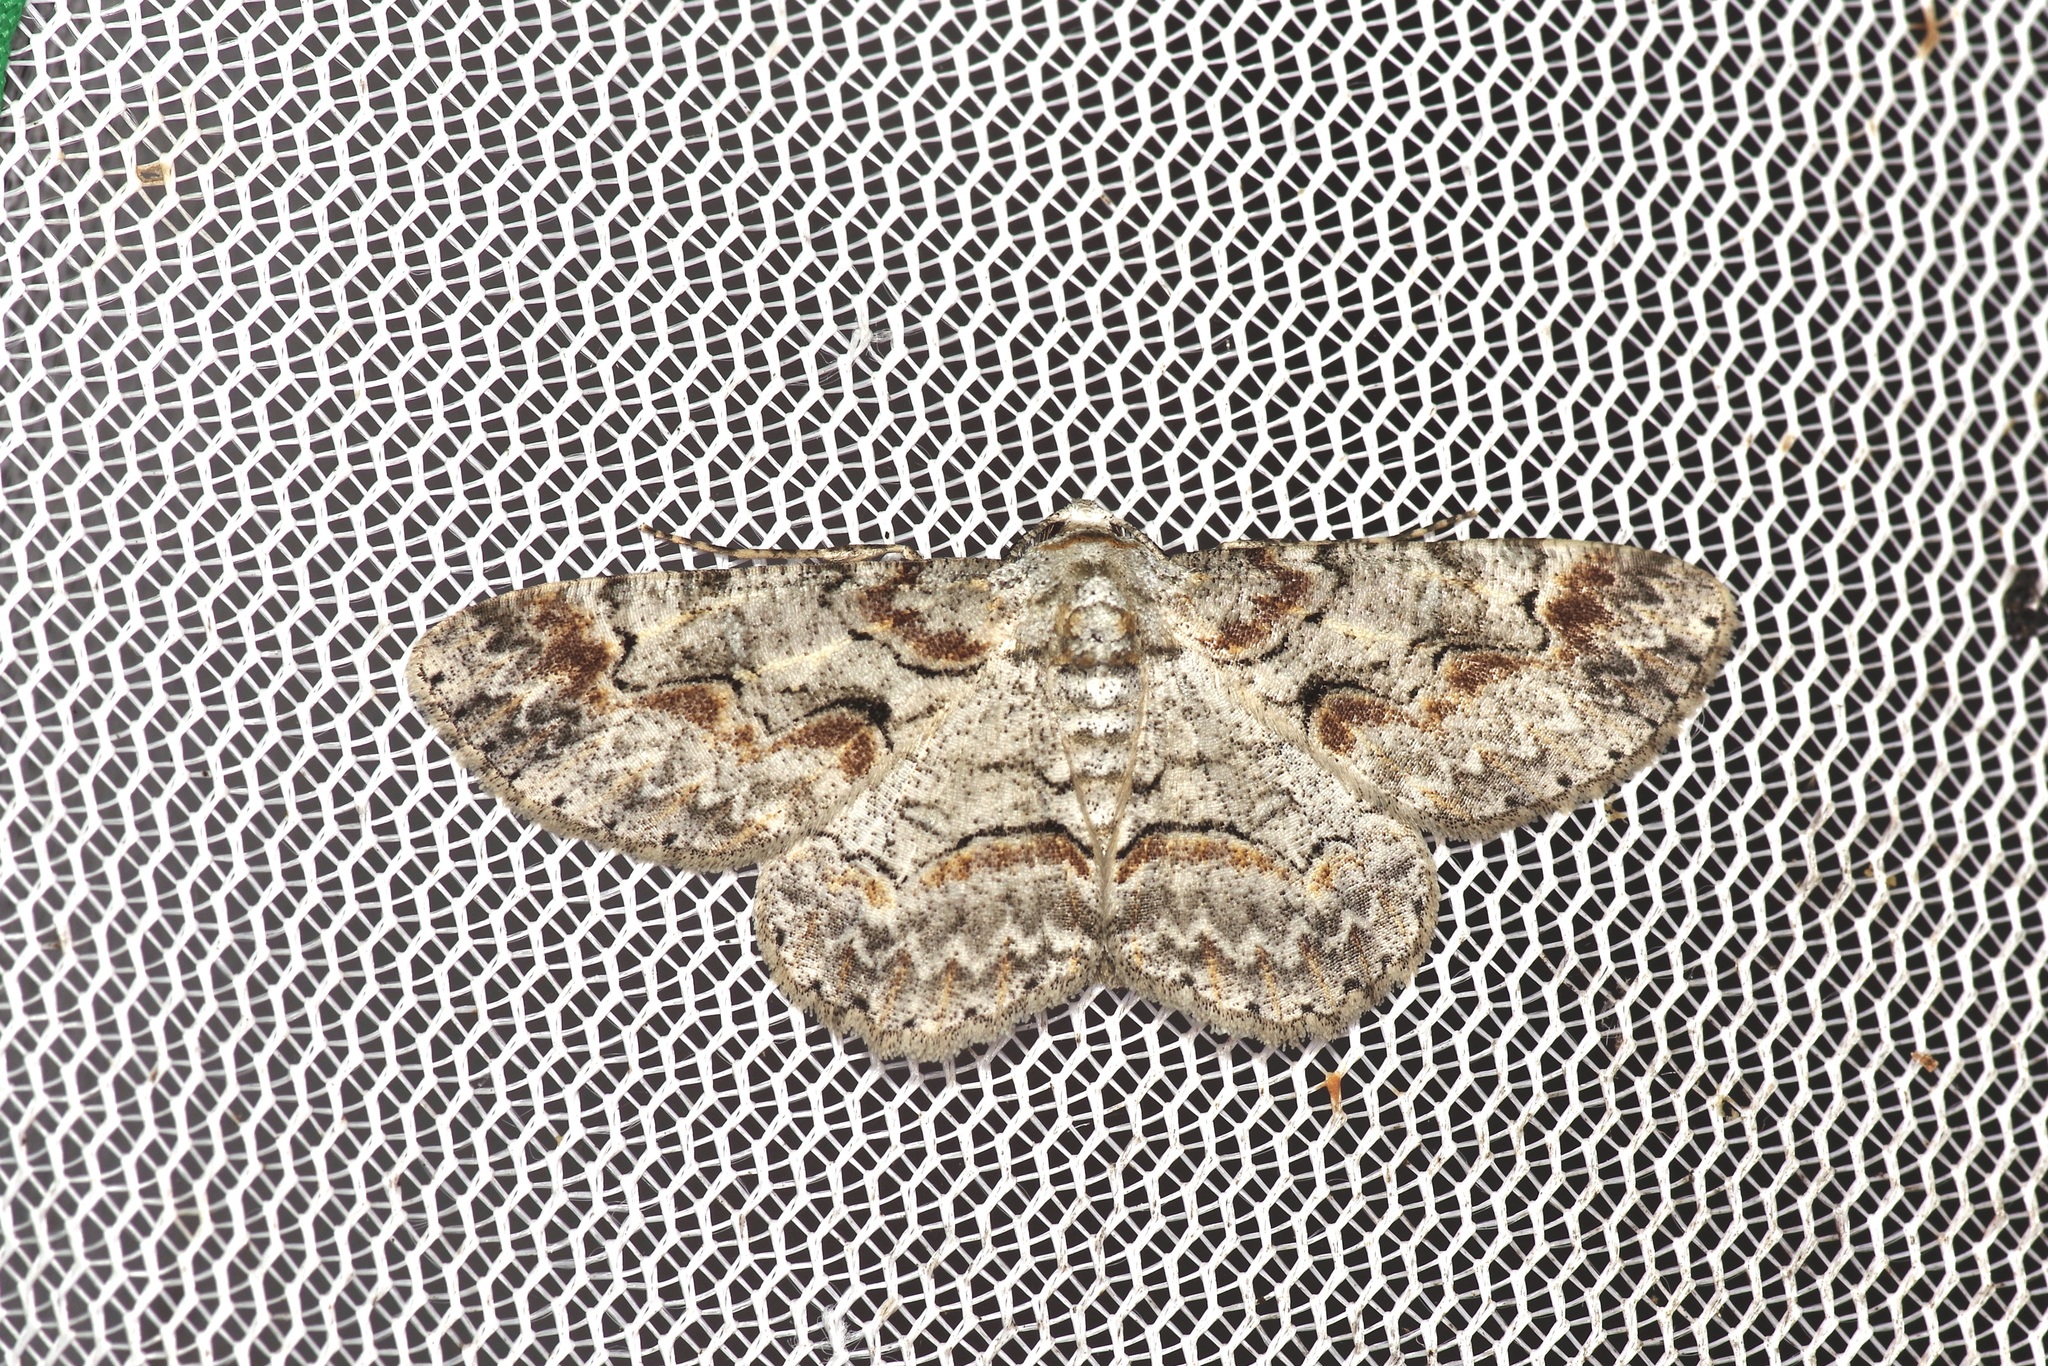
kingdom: Animalia
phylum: Arthropoda
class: Insecta
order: Lepidoptera
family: Geometridae
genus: Iridopsis
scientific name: Iridopsis defectaria
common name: Brown-shaded gray
